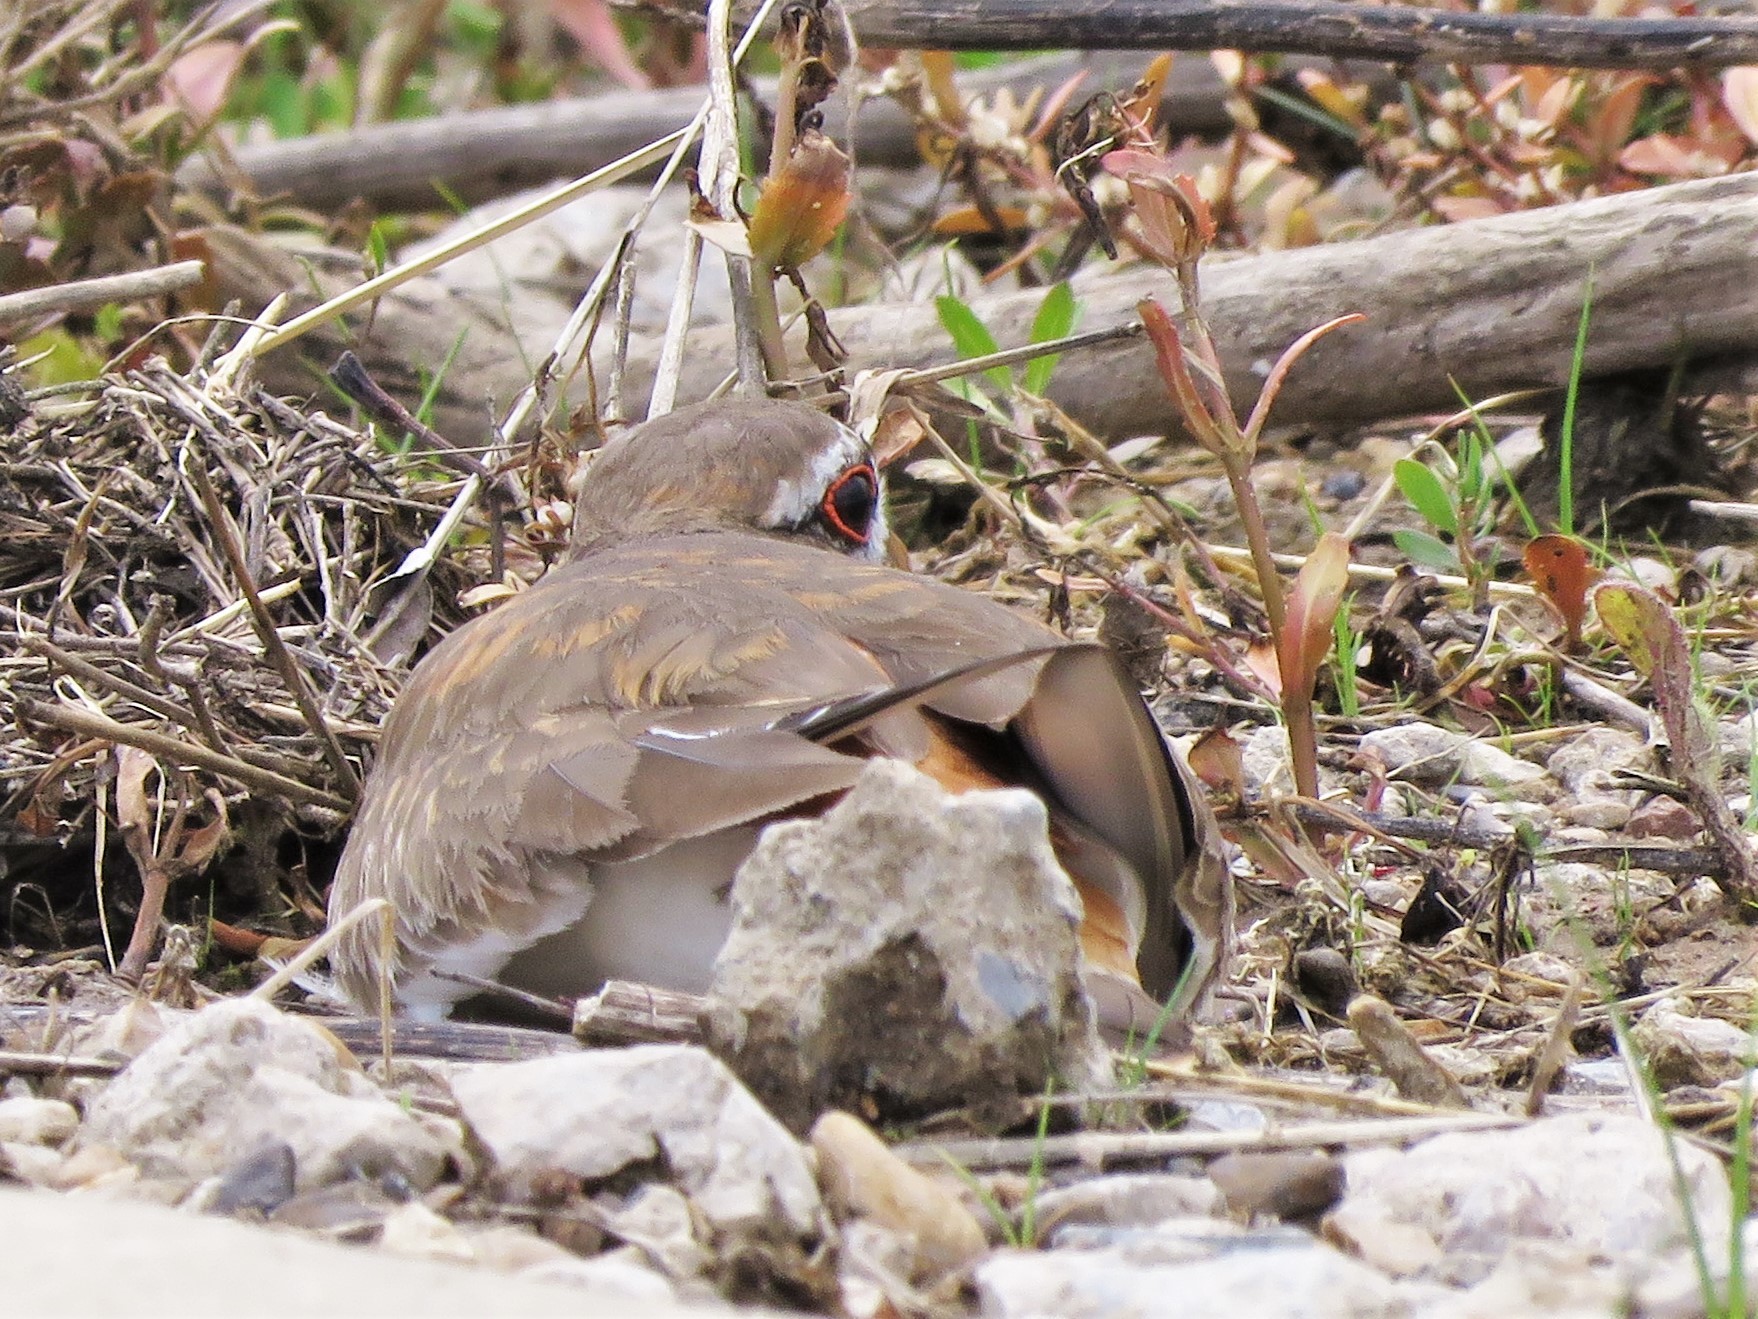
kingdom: Animalia
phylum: Chordata
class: Aves
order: Charadriiformes
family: Charadriidae
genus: Charadrius
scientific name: Charadrius vociferus
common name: Killdeer
